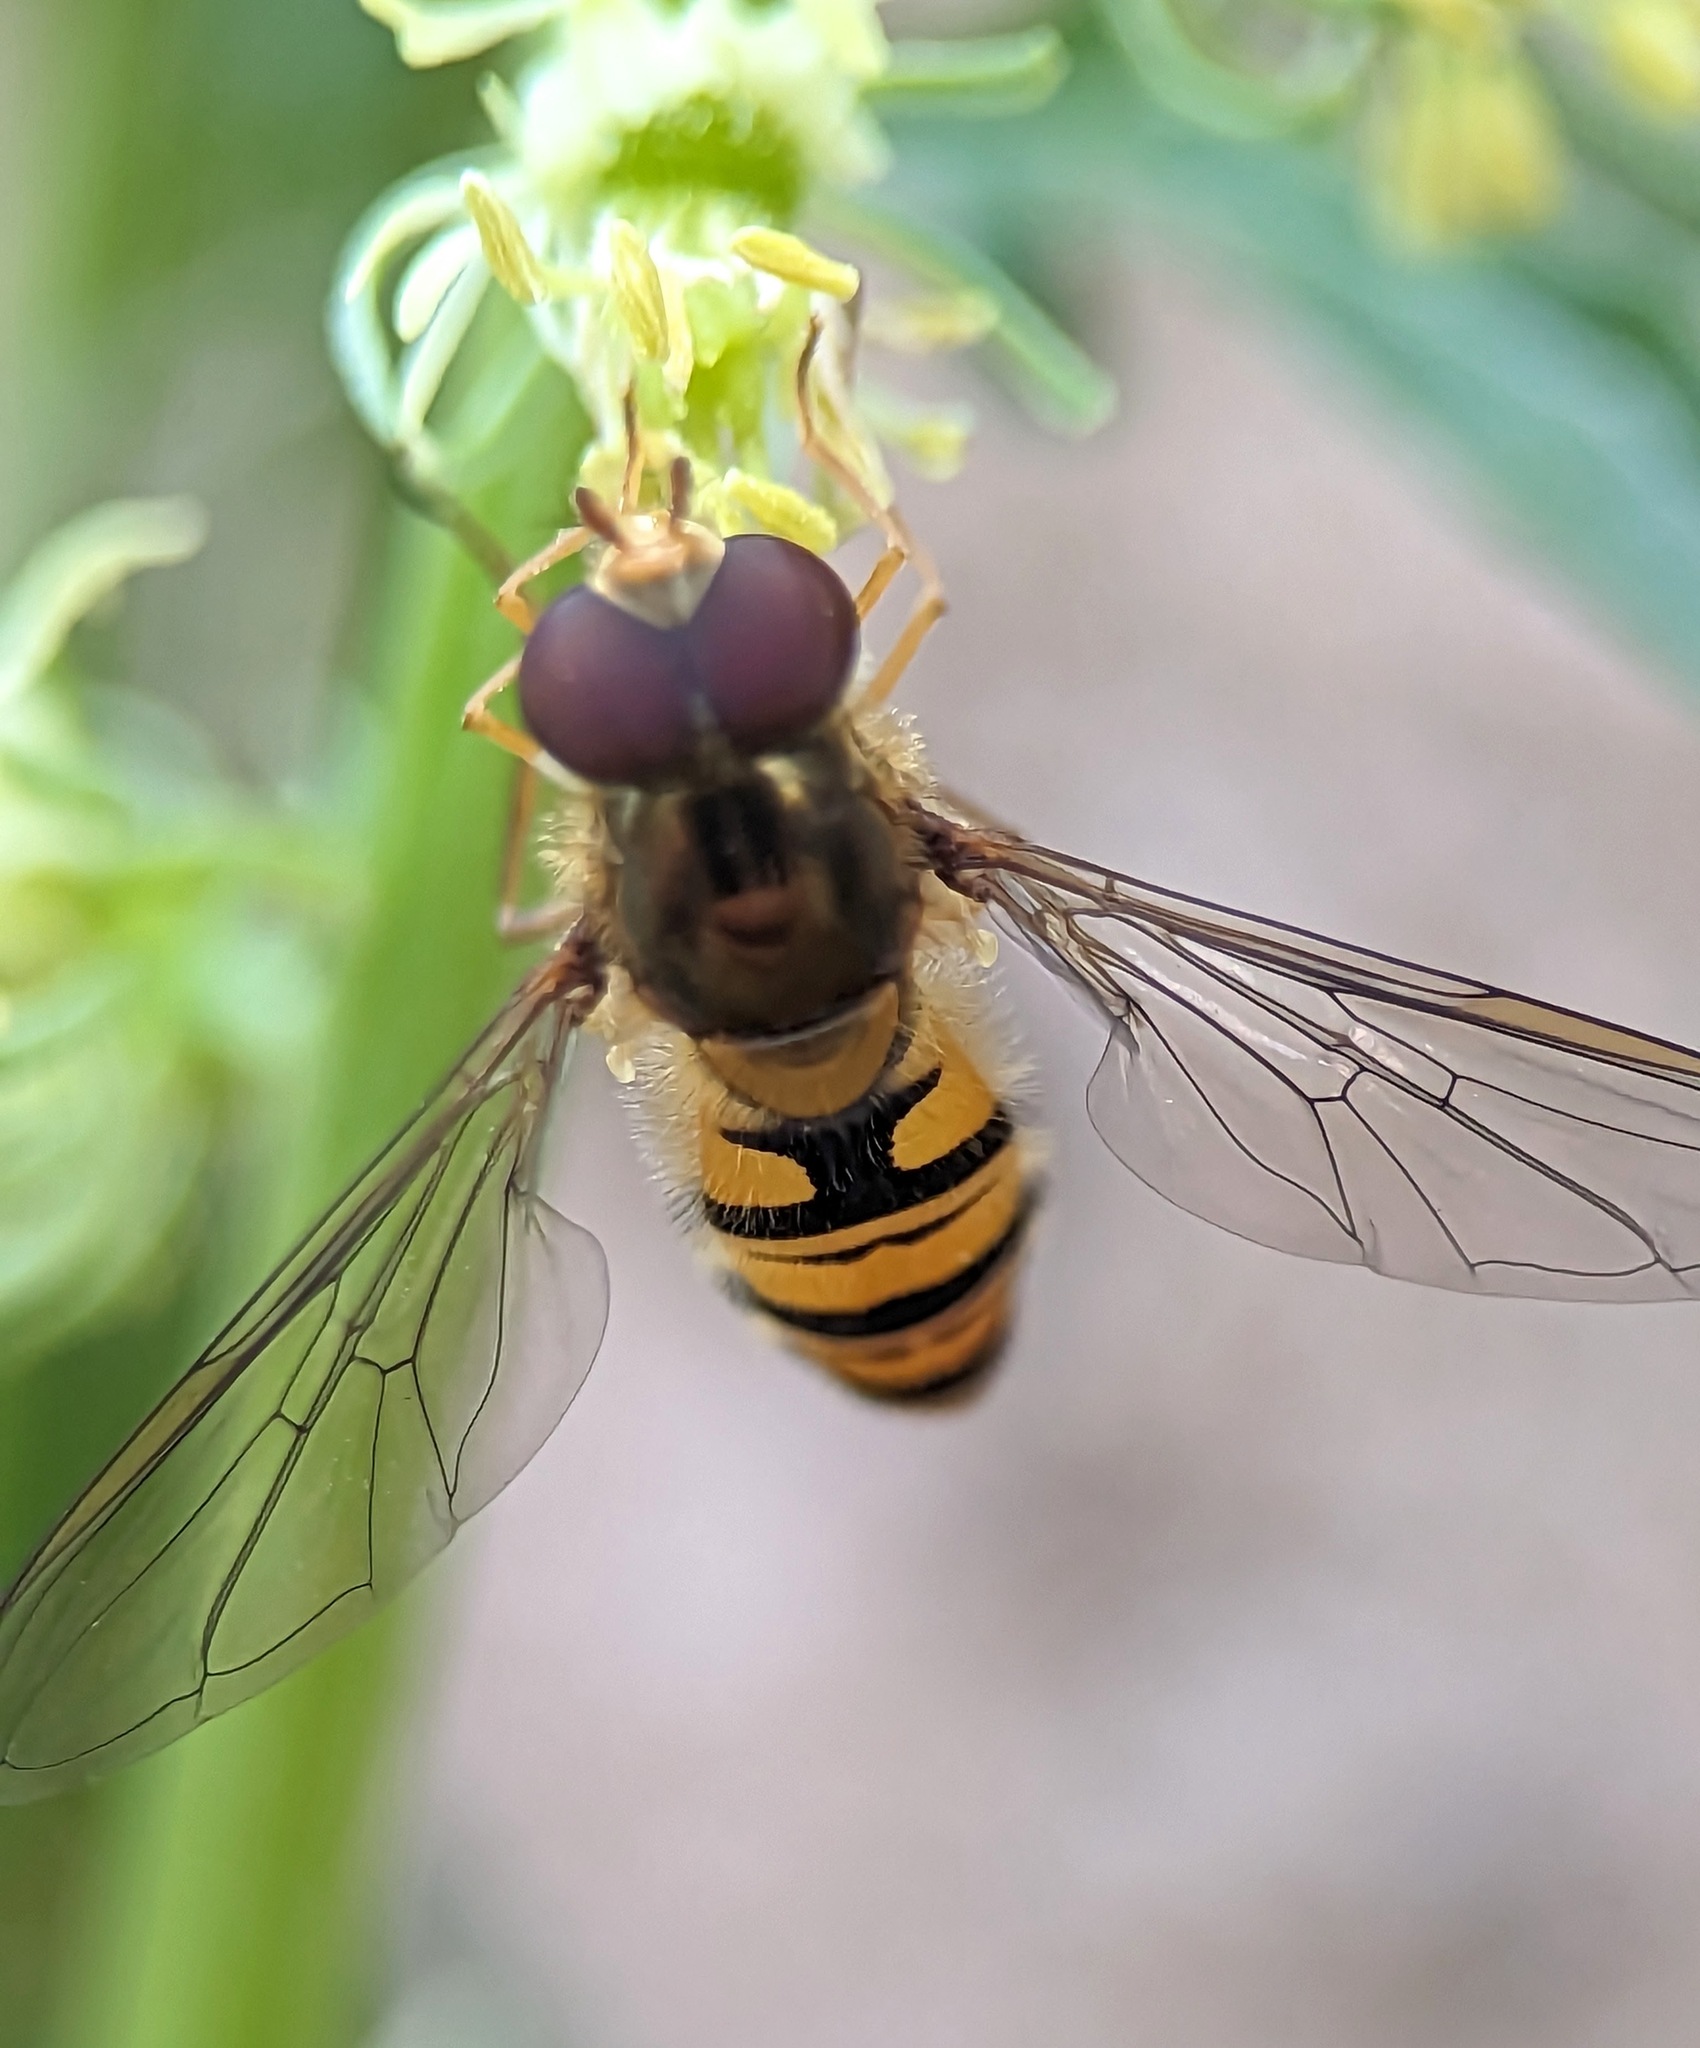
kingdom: Animalia
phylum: Arthropoda
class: Insecta
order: Diptera
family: Syrphidae
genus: Episyrphus
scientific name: Episyrphus balteatus
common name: Marmalade hoverfly
